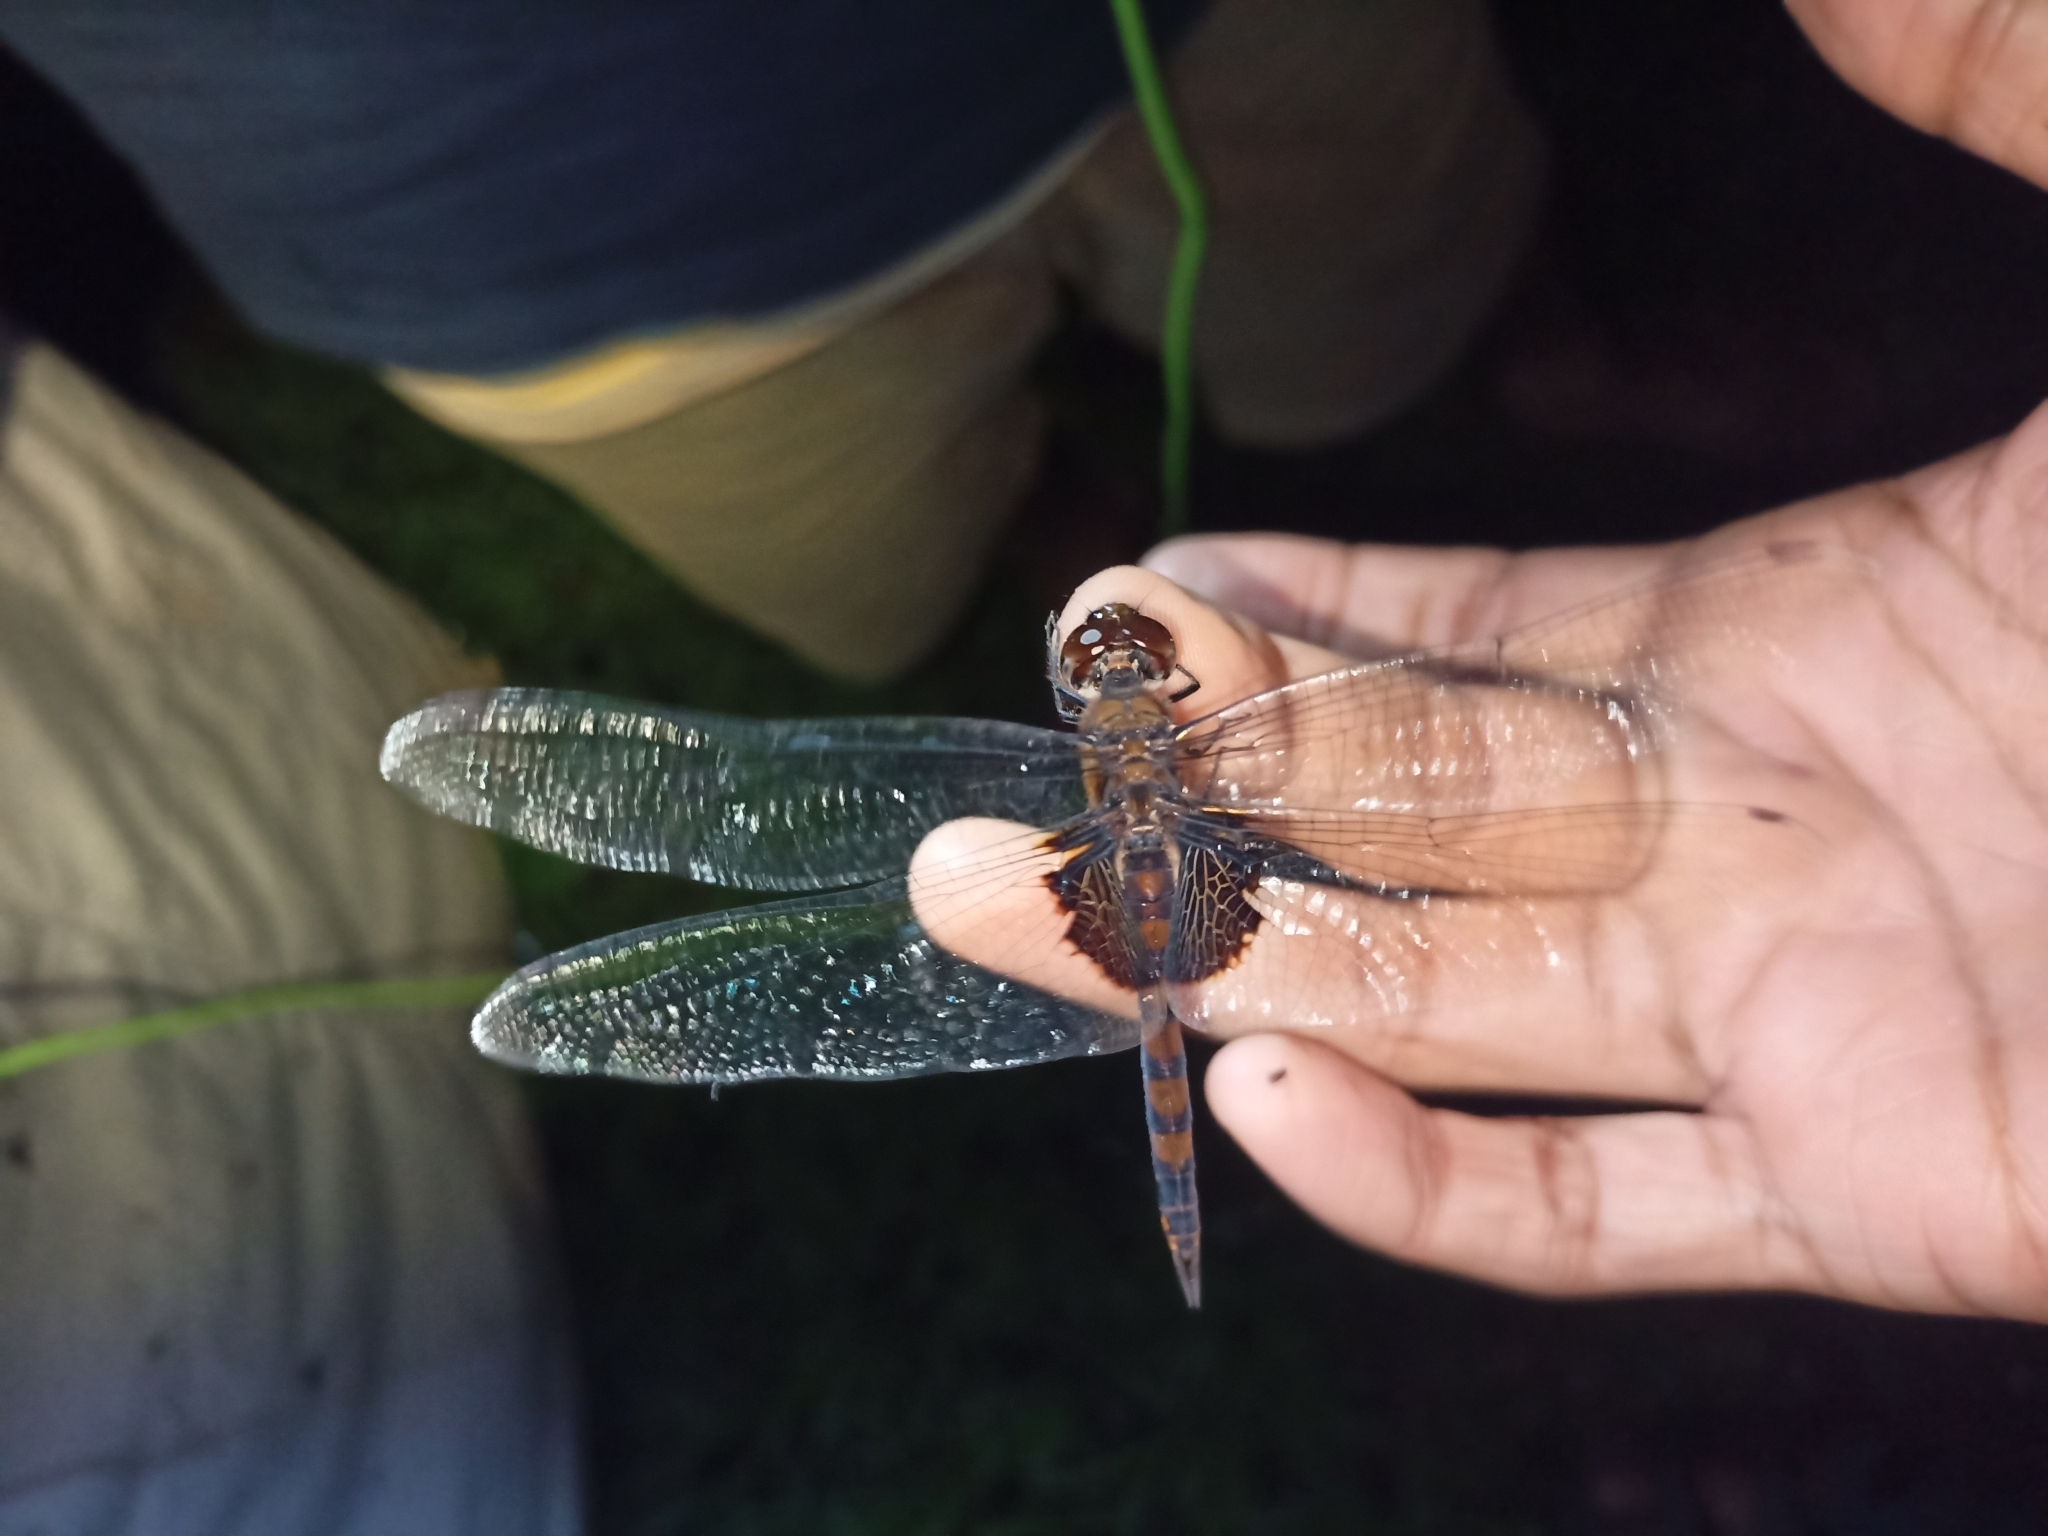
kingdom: Animalia
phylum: Arthropoda
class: Insecta
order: Odonata
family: Libellulidae
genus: Tramea
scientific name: Tramea limbata
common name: Ferruginous glider
